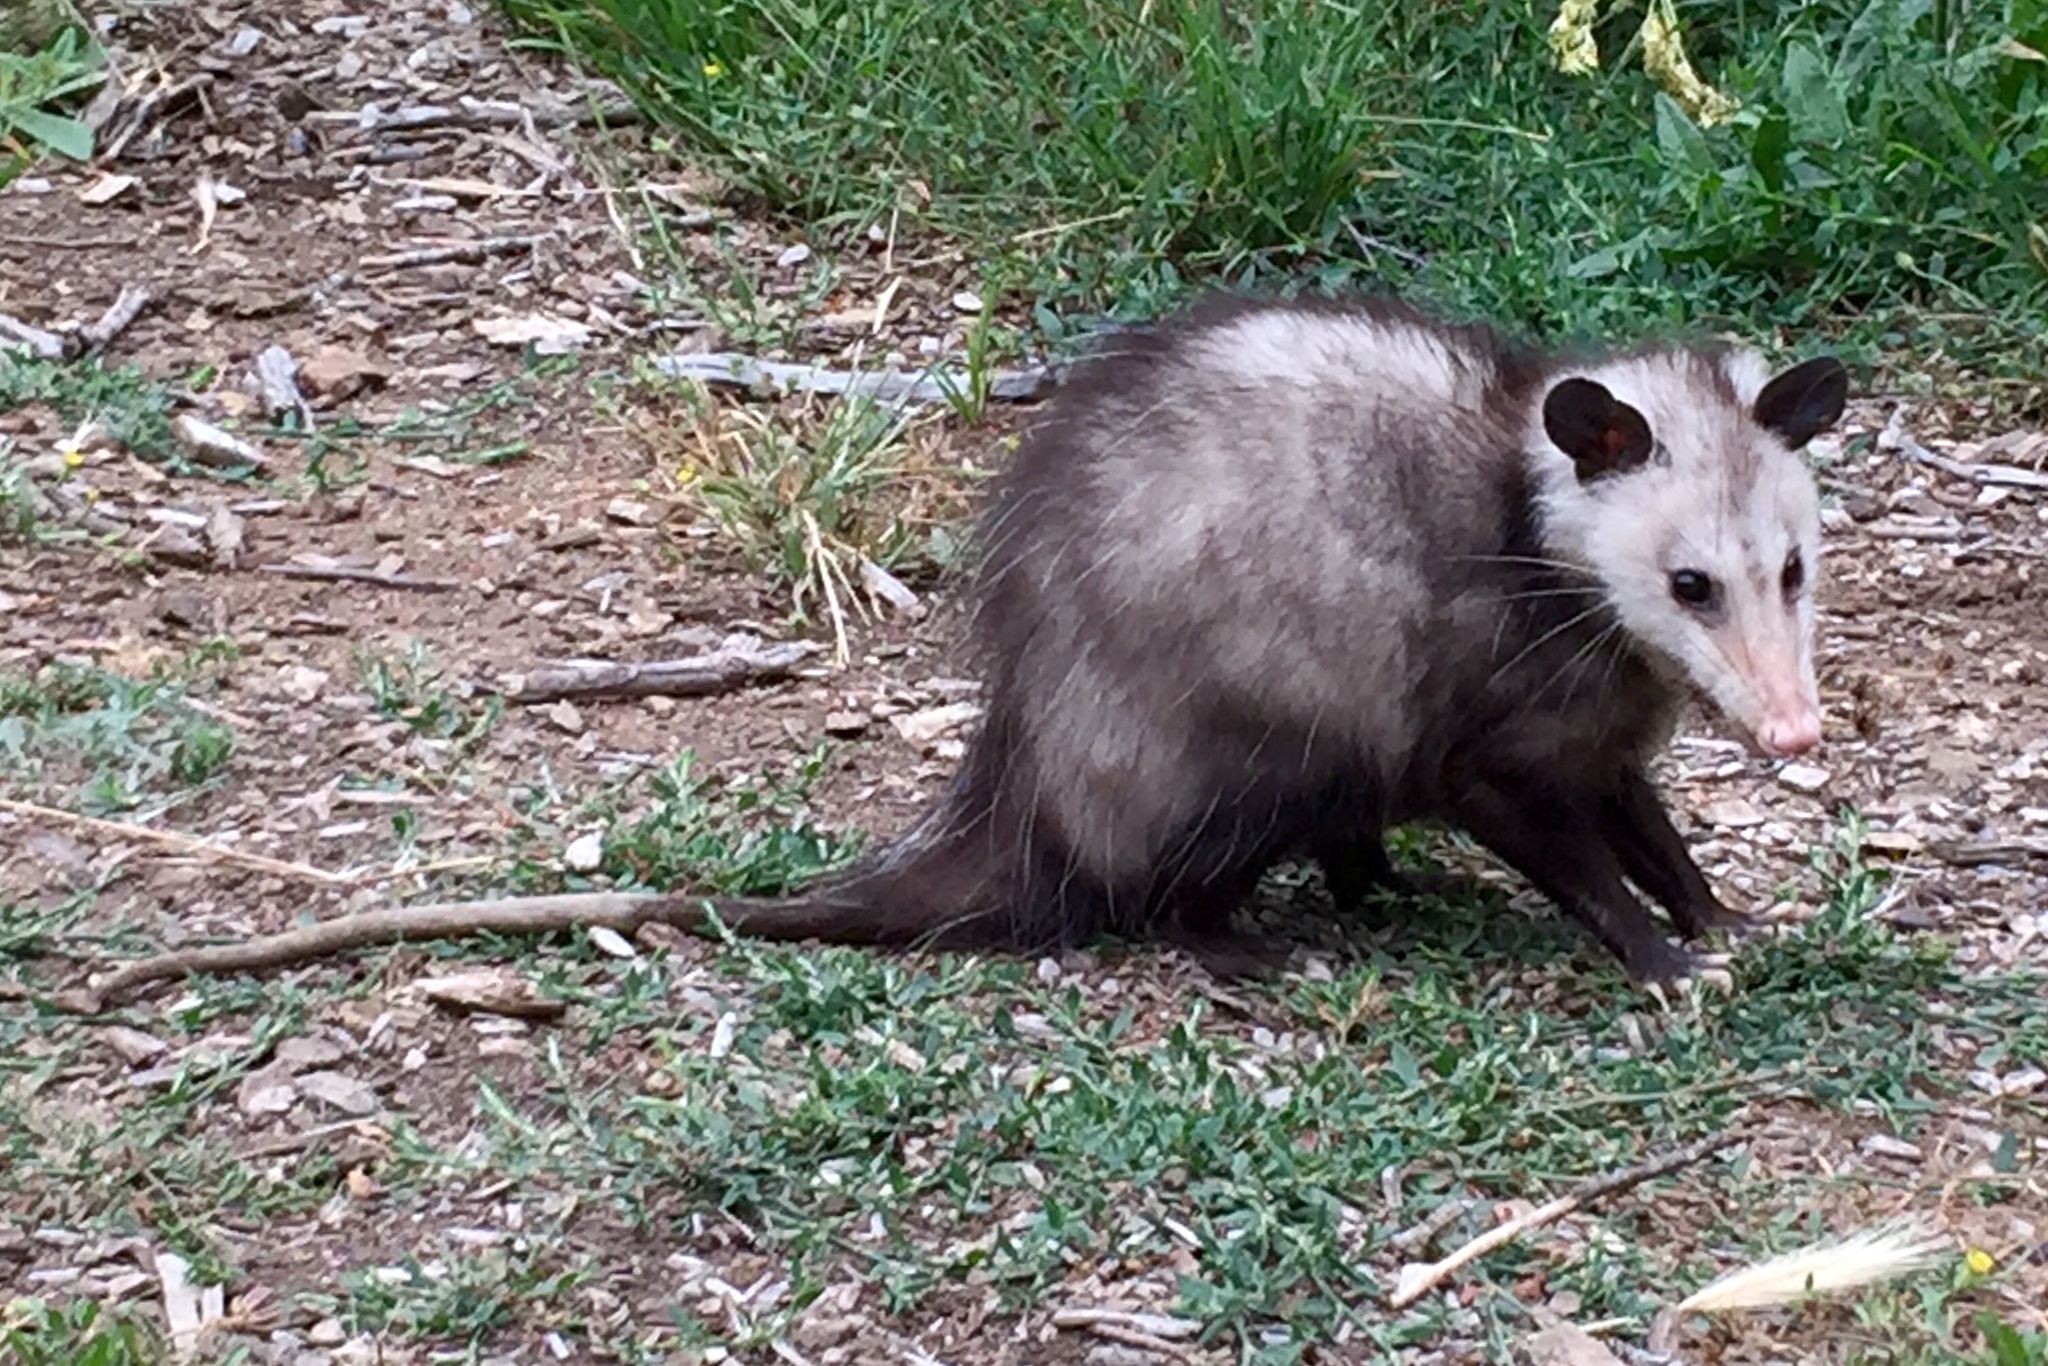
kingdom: Animalia
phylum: Chordata
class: Mammalia
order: Didelphimorphia
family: Didelphidae
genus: Didelphis
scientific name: Didelphis virginiana
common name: Virginia opossum
